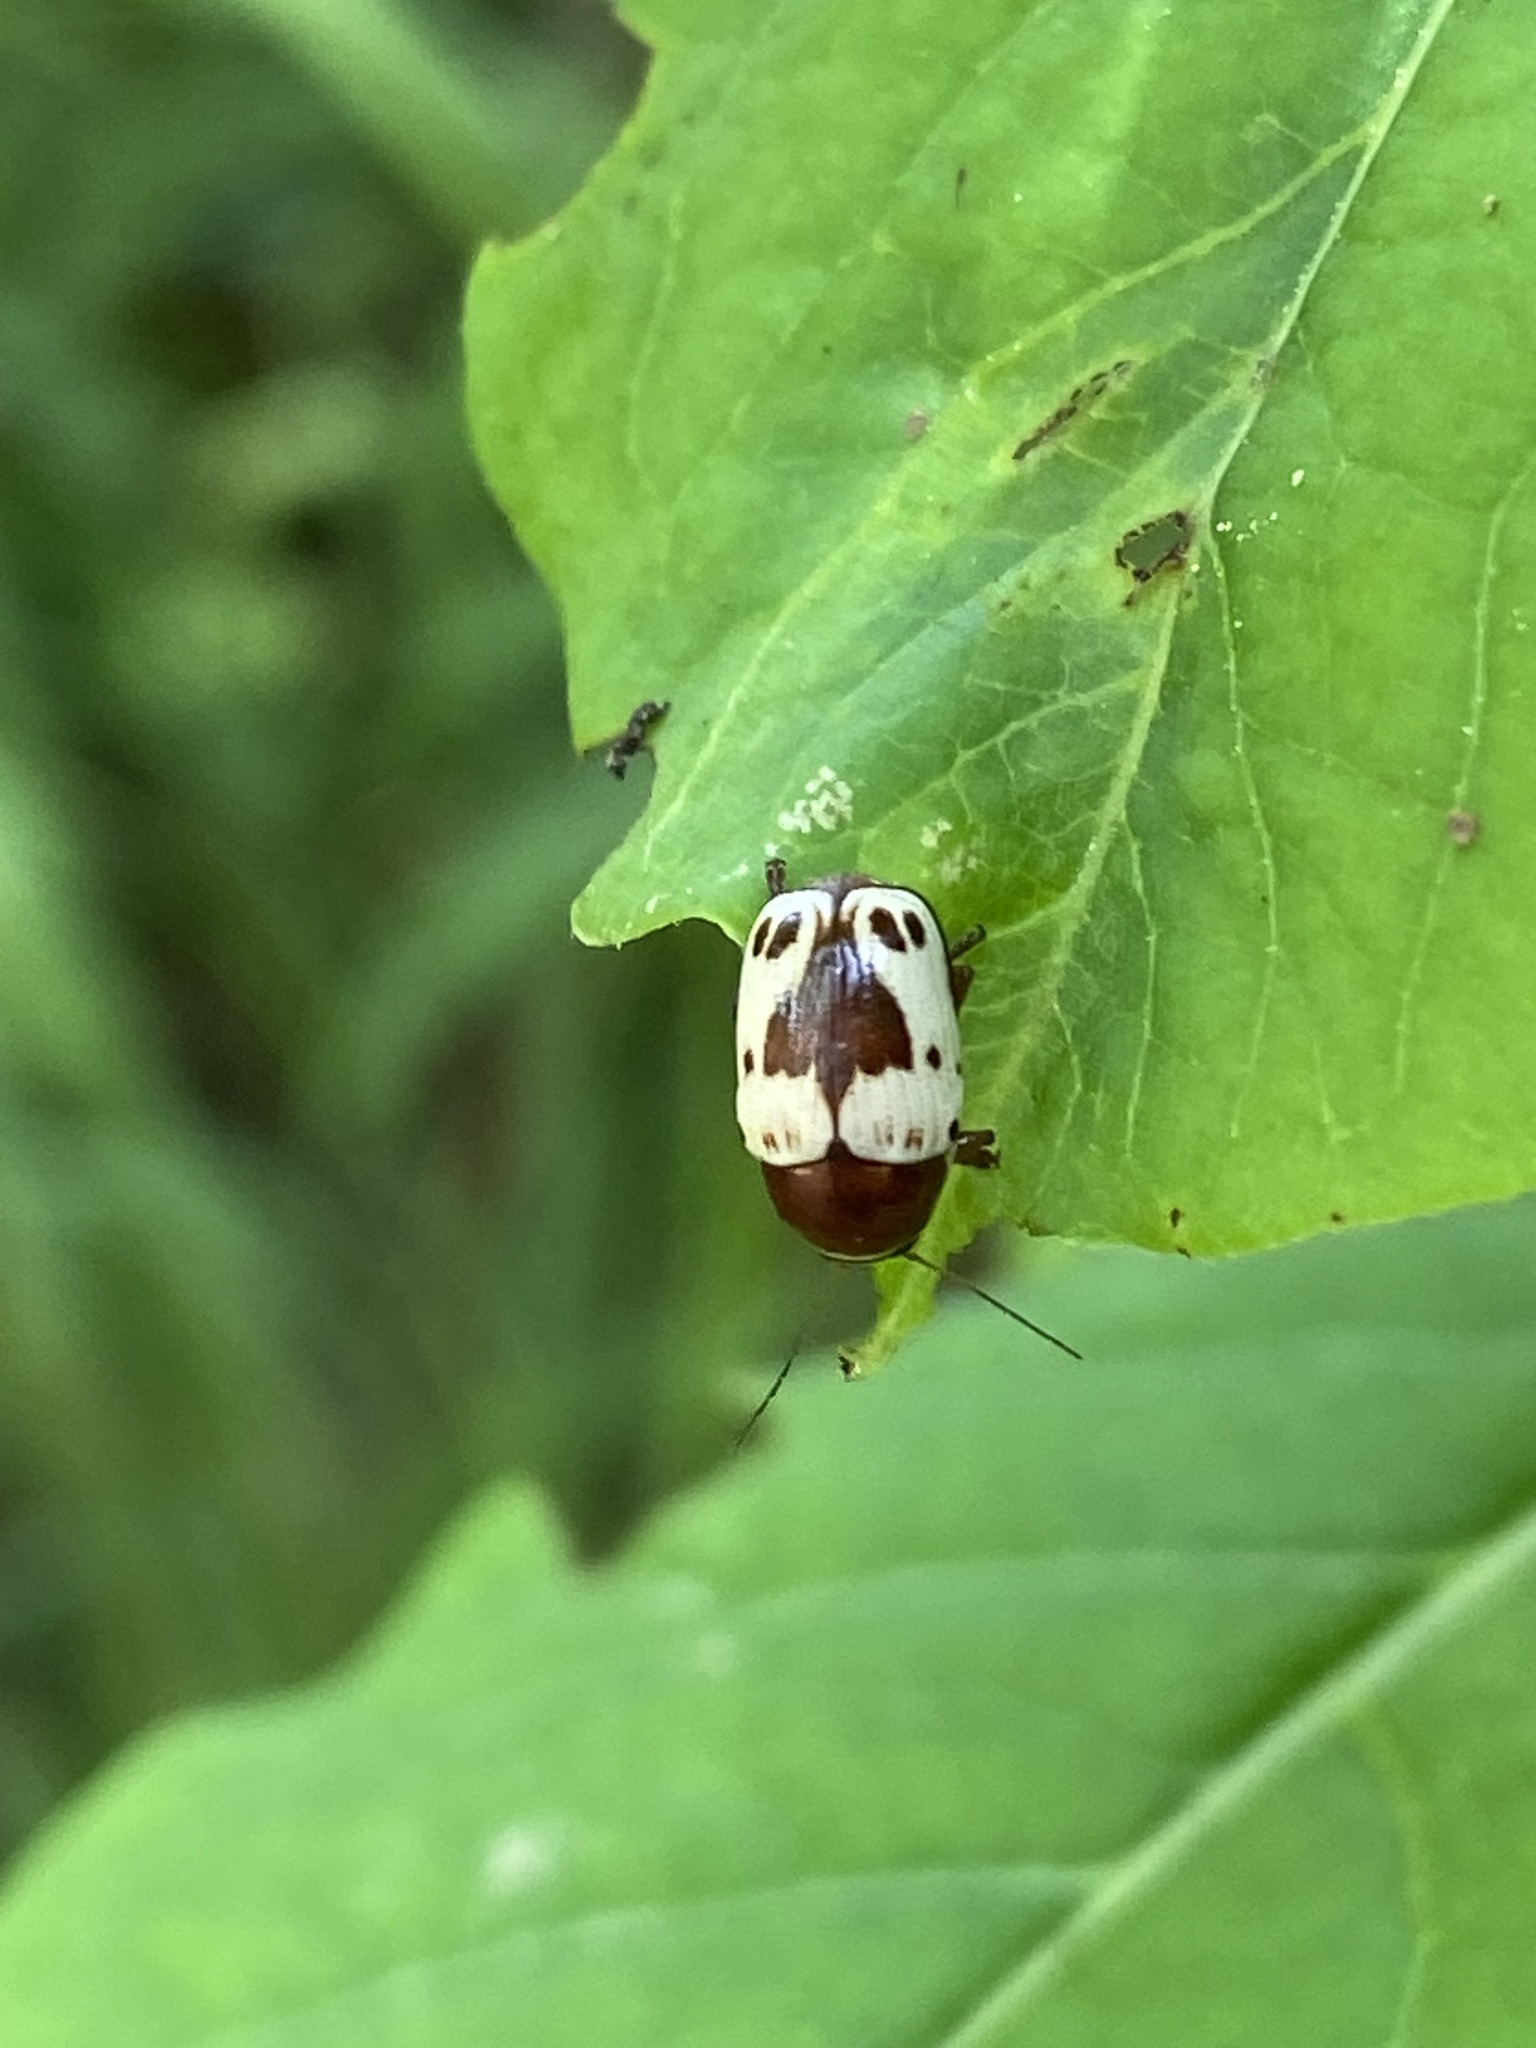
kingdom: Animalia
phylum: Arthropoda
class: Insecta
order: Coleoptera
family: Chrysomelidae
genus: Cryptocephalus
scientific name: Cryptocephalus mutabilis
